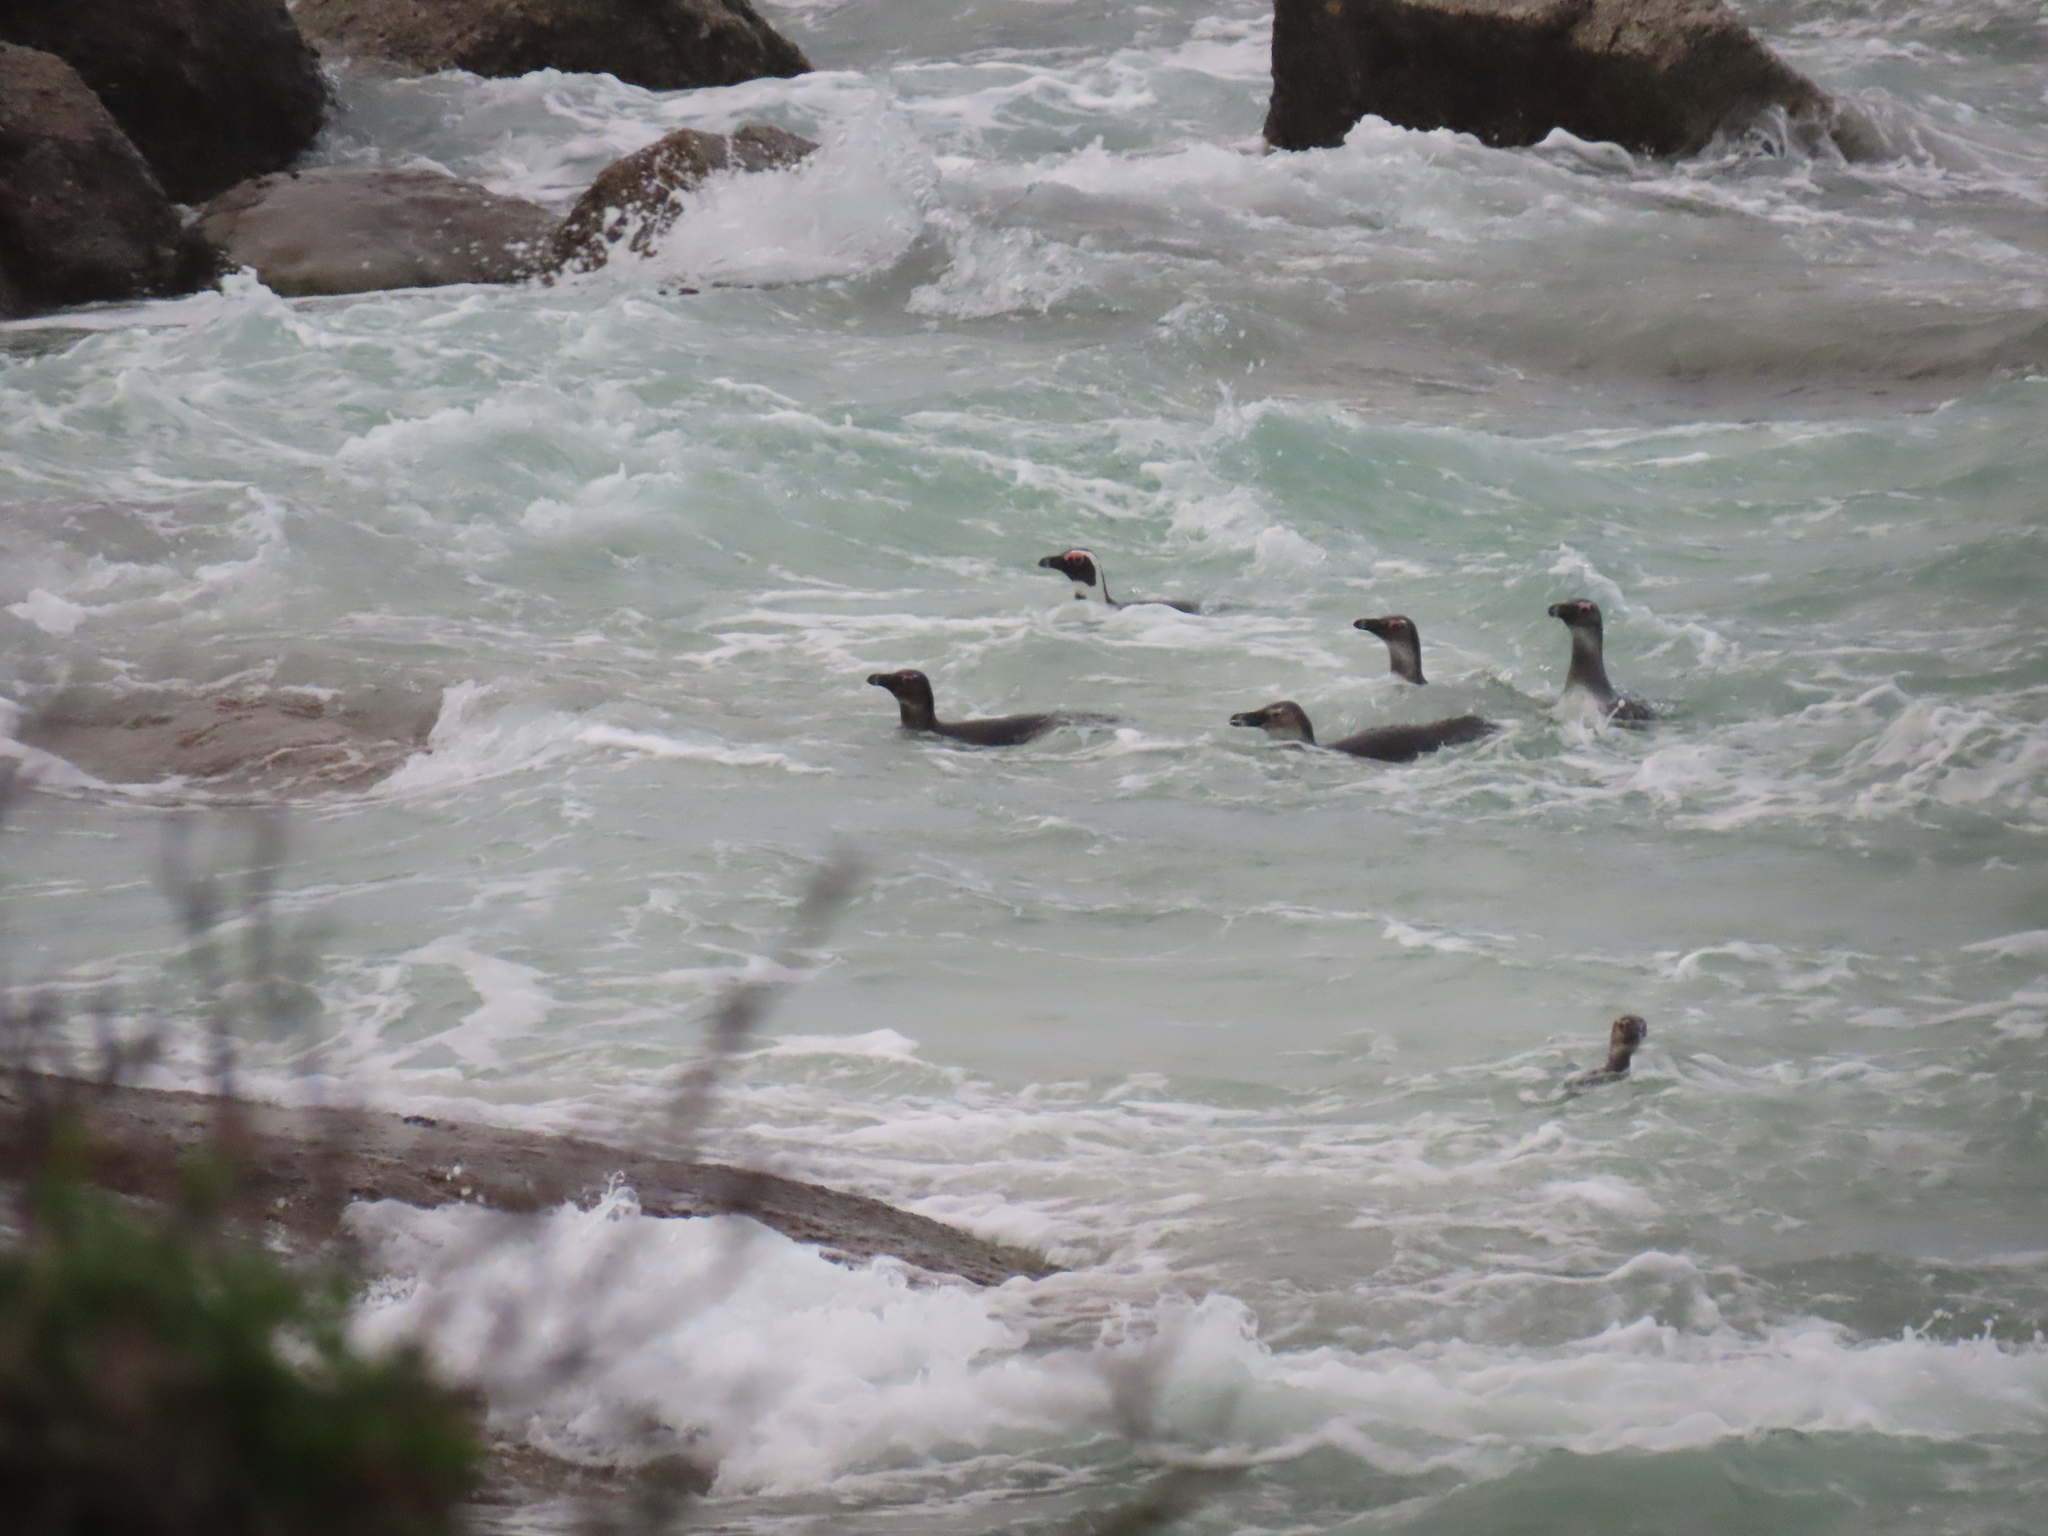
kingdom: Animalia
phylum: Chordata
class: Aves
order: Sphenisciformes
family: Spheniscidae
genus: Spheniscus
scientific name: Spheniscus demersus
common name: African penguin
